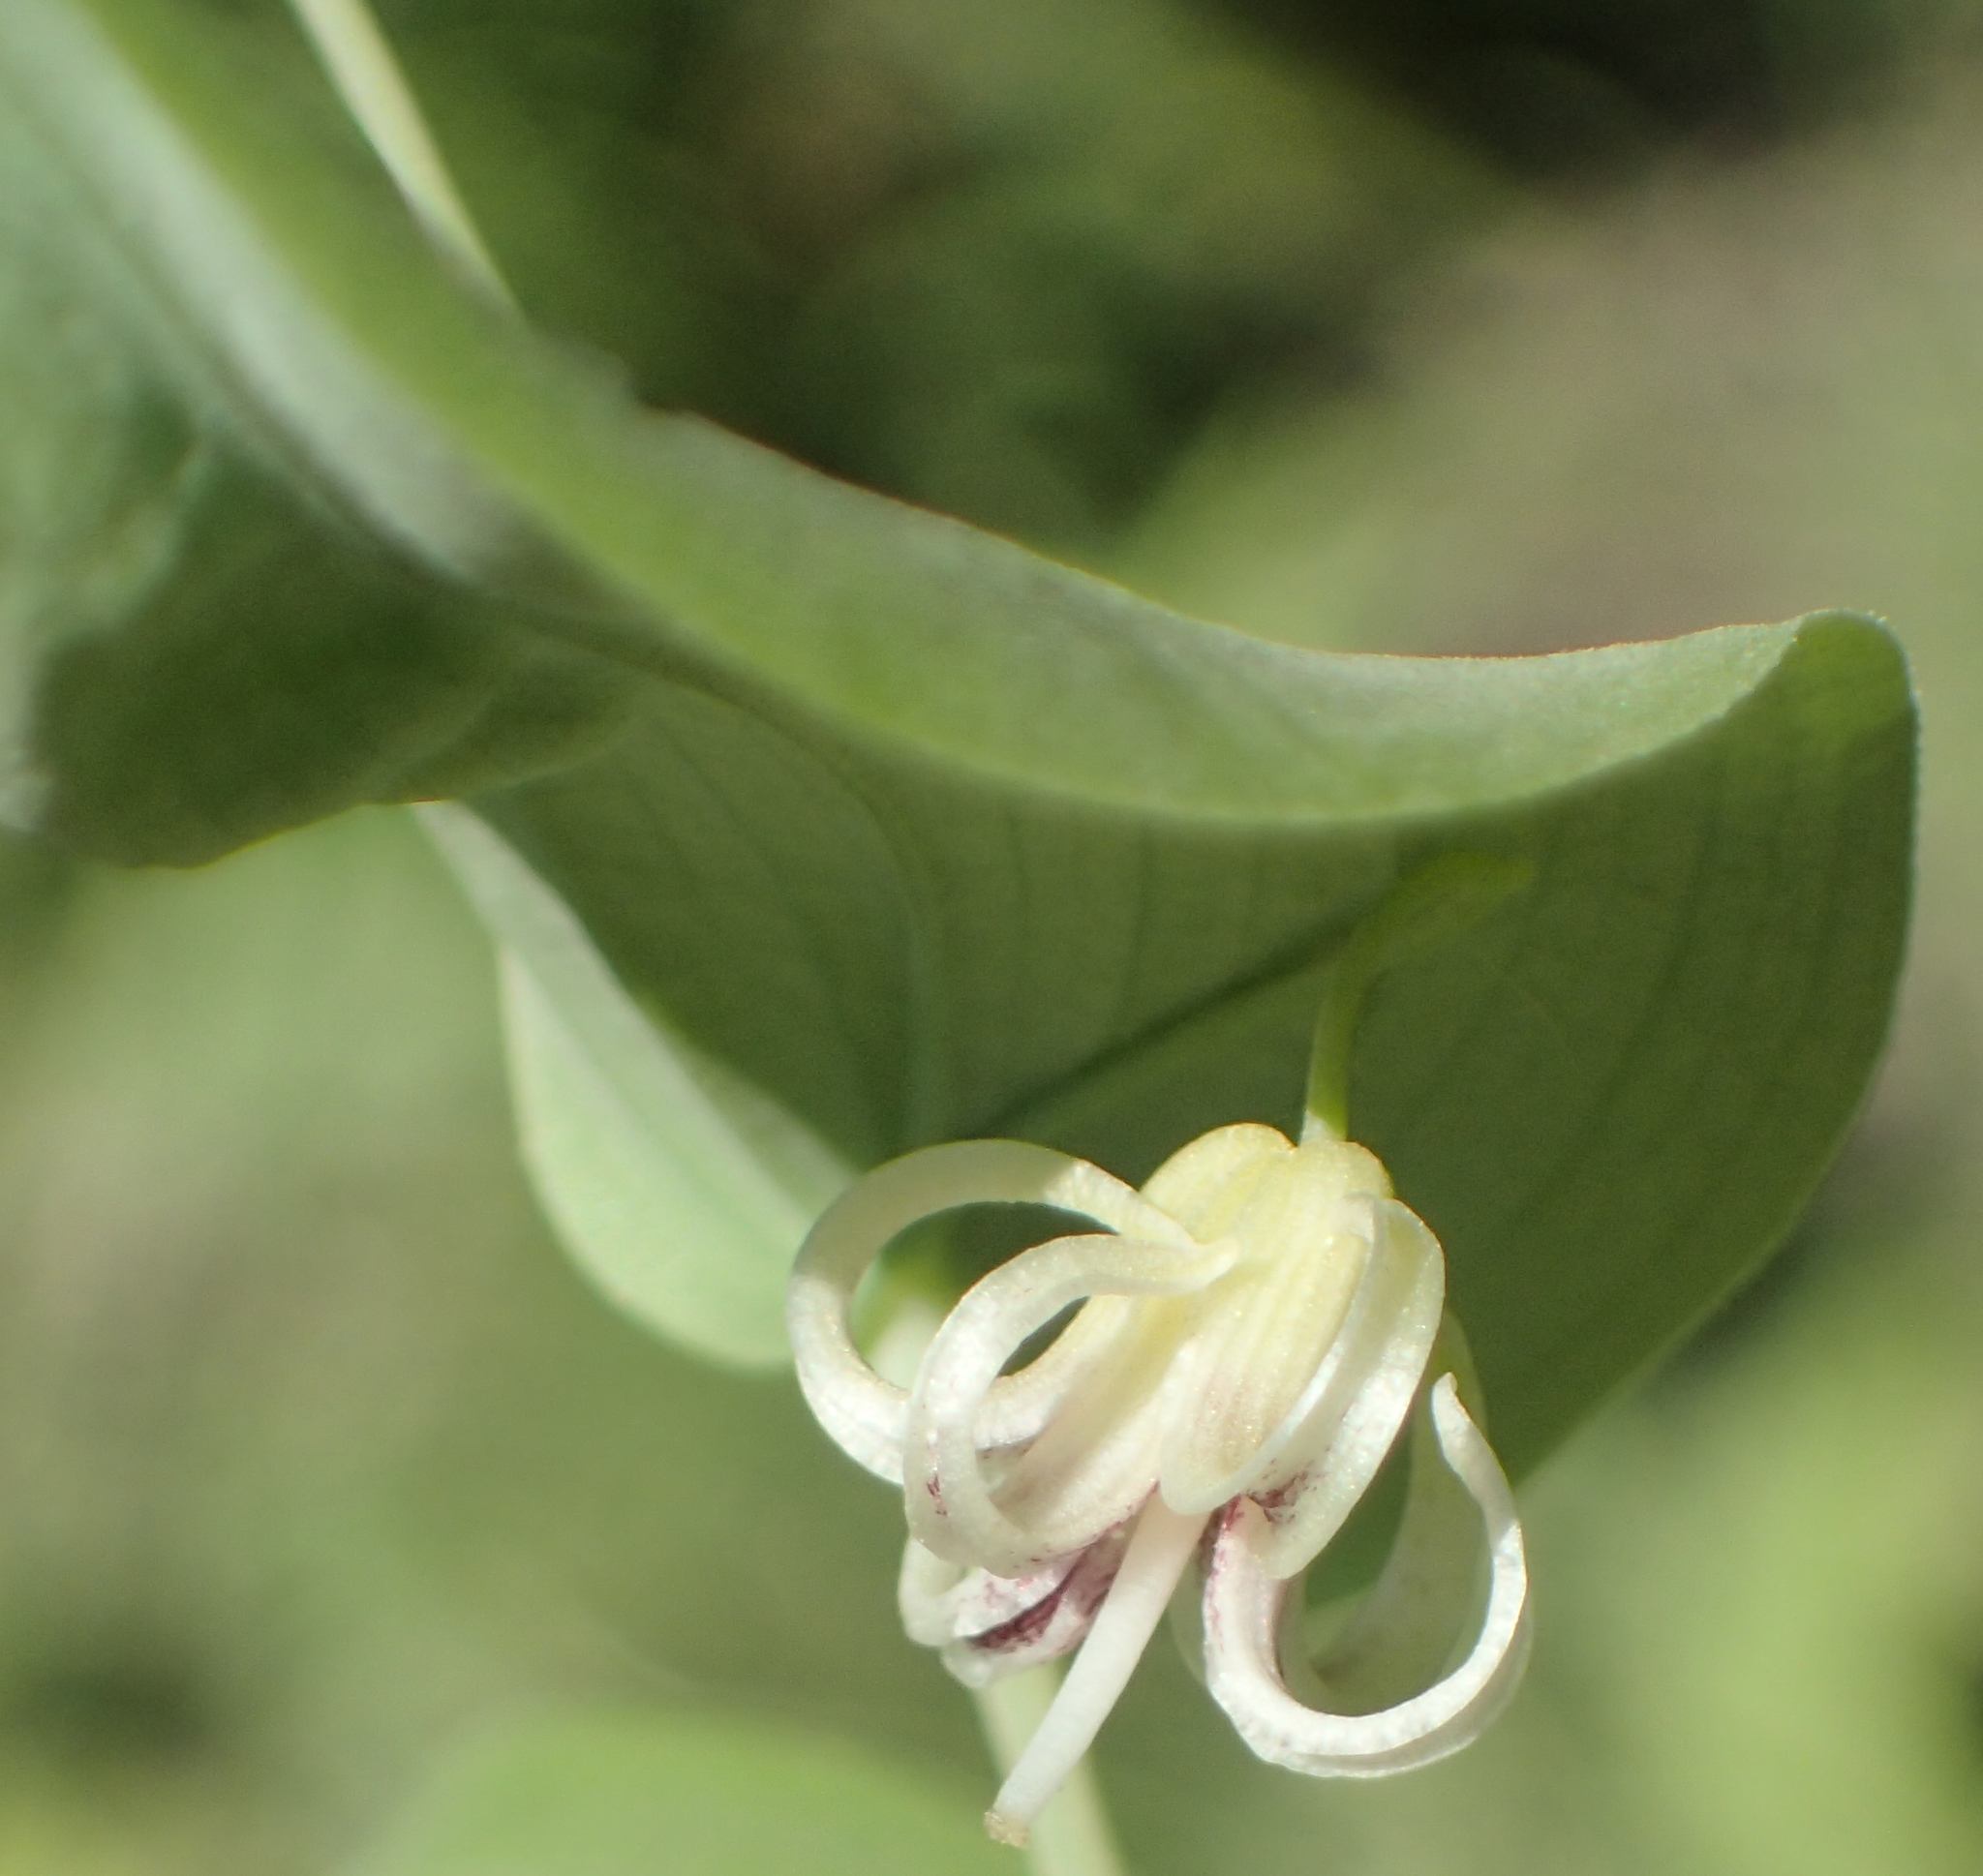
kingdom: Plantae
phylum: Tracheophyta
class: Liliopsida
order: Liliales
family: Liliaceae
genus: Streptopus
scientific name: Streptopus amplexifolius
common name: Clasp twisted stalk
